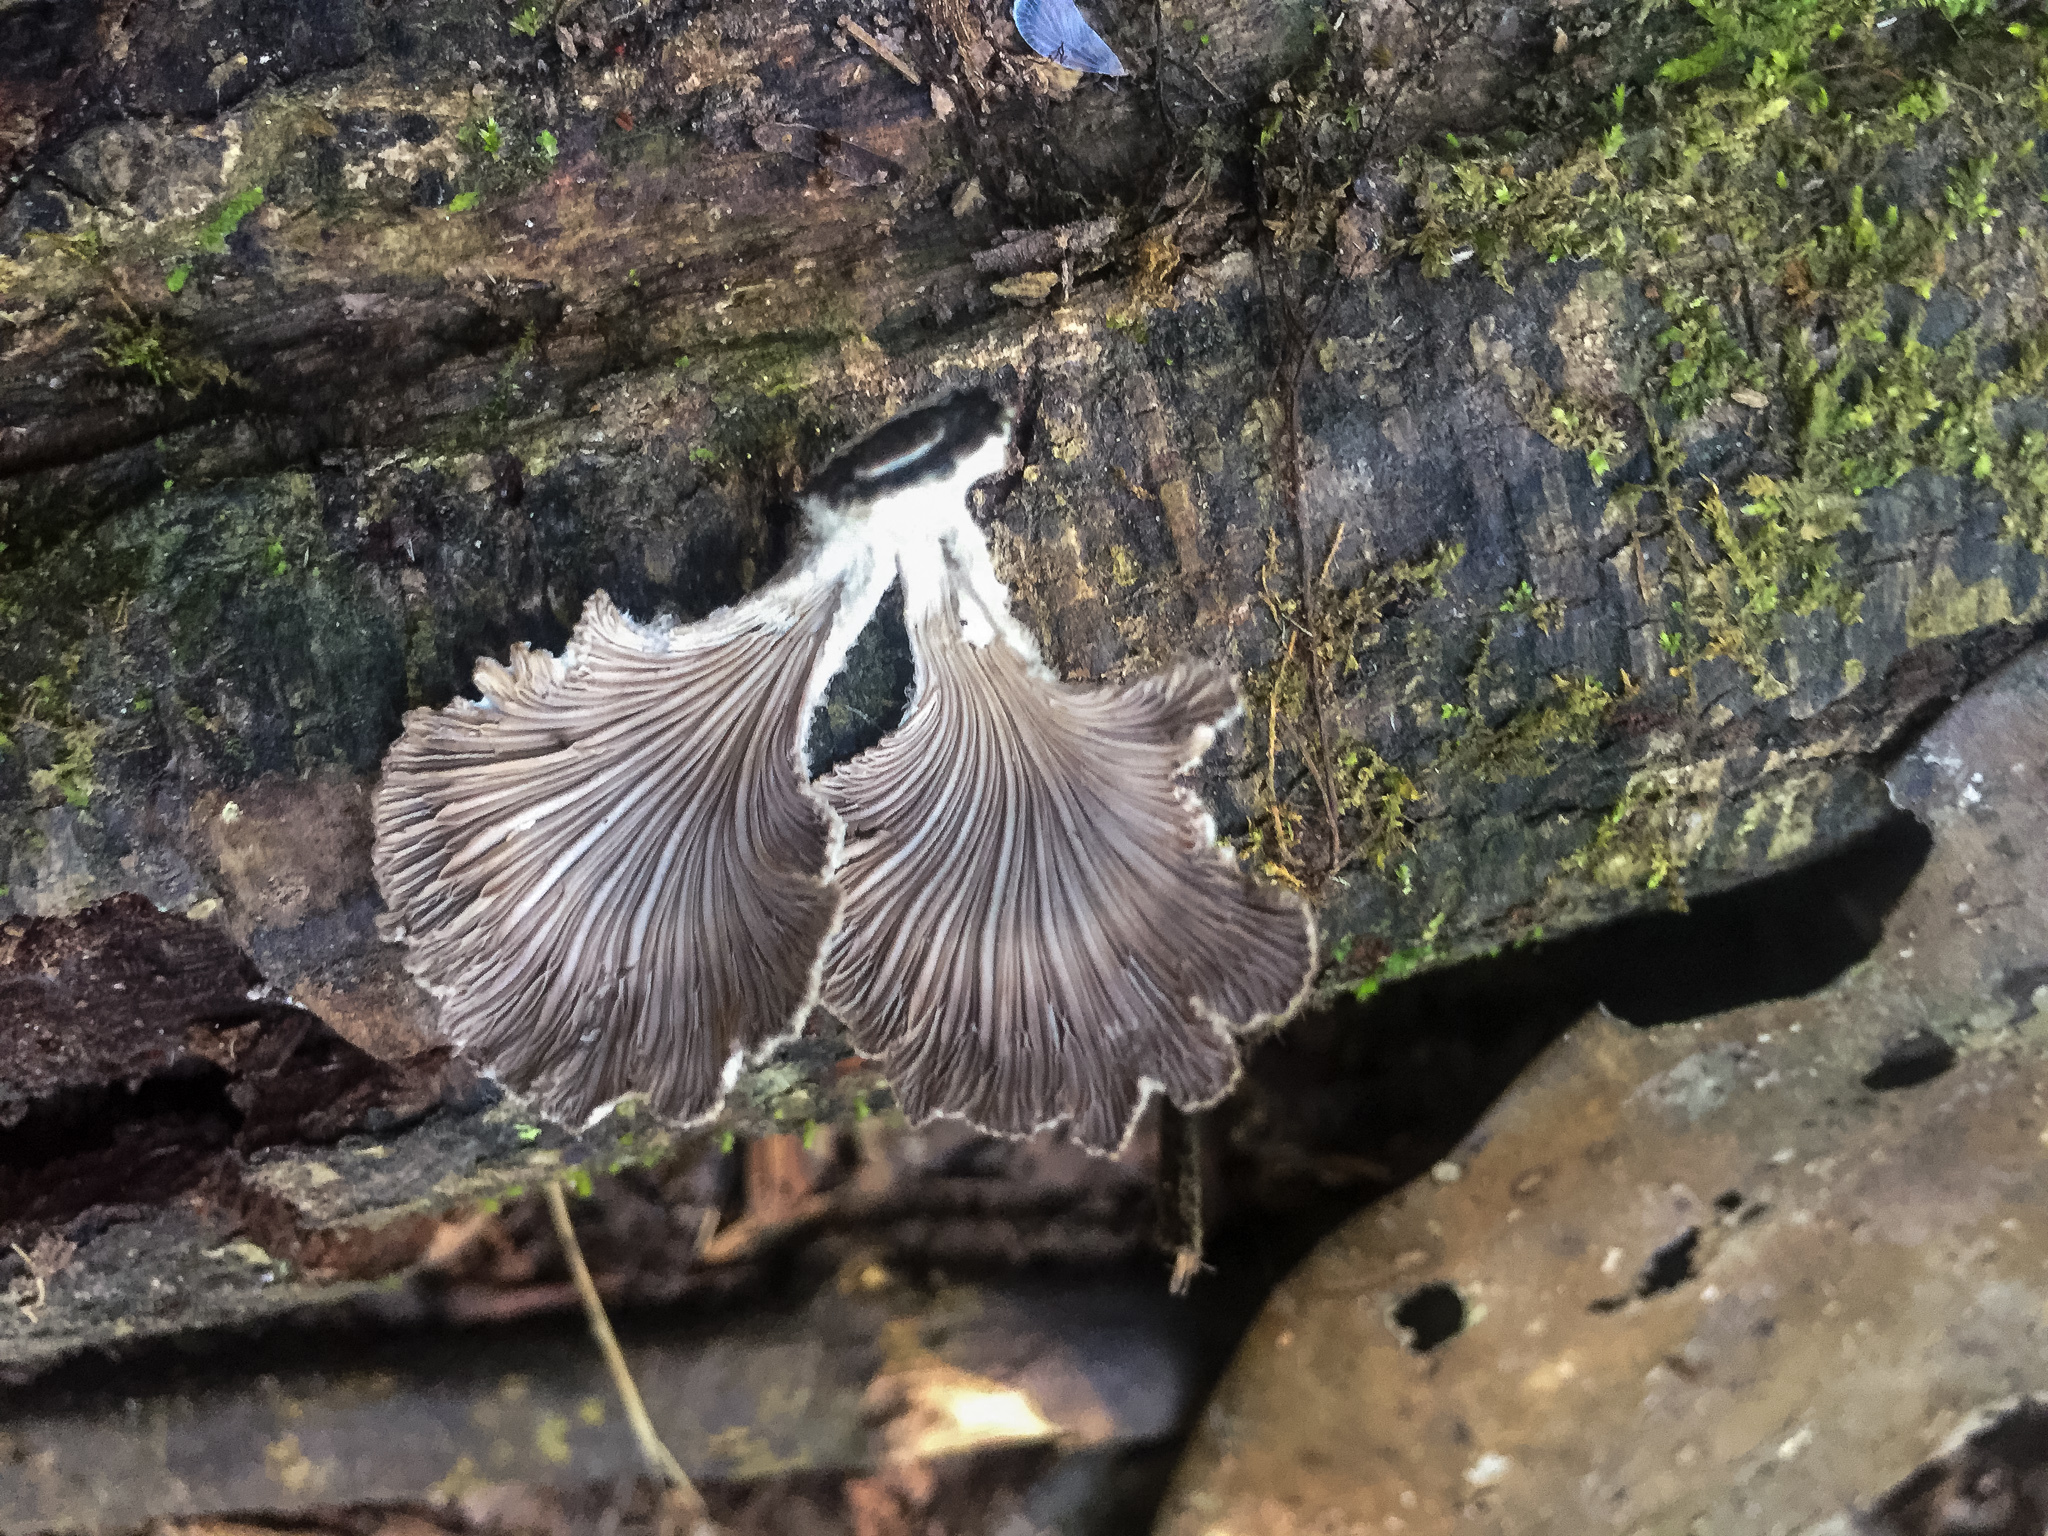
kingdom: Fungi
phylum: Basidiomycota
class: Agaricomycetes
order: Agaricales
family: Schizophyllaceae
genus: Schizophyllum
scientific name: Schizophyllum commune
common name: Common porecrust
